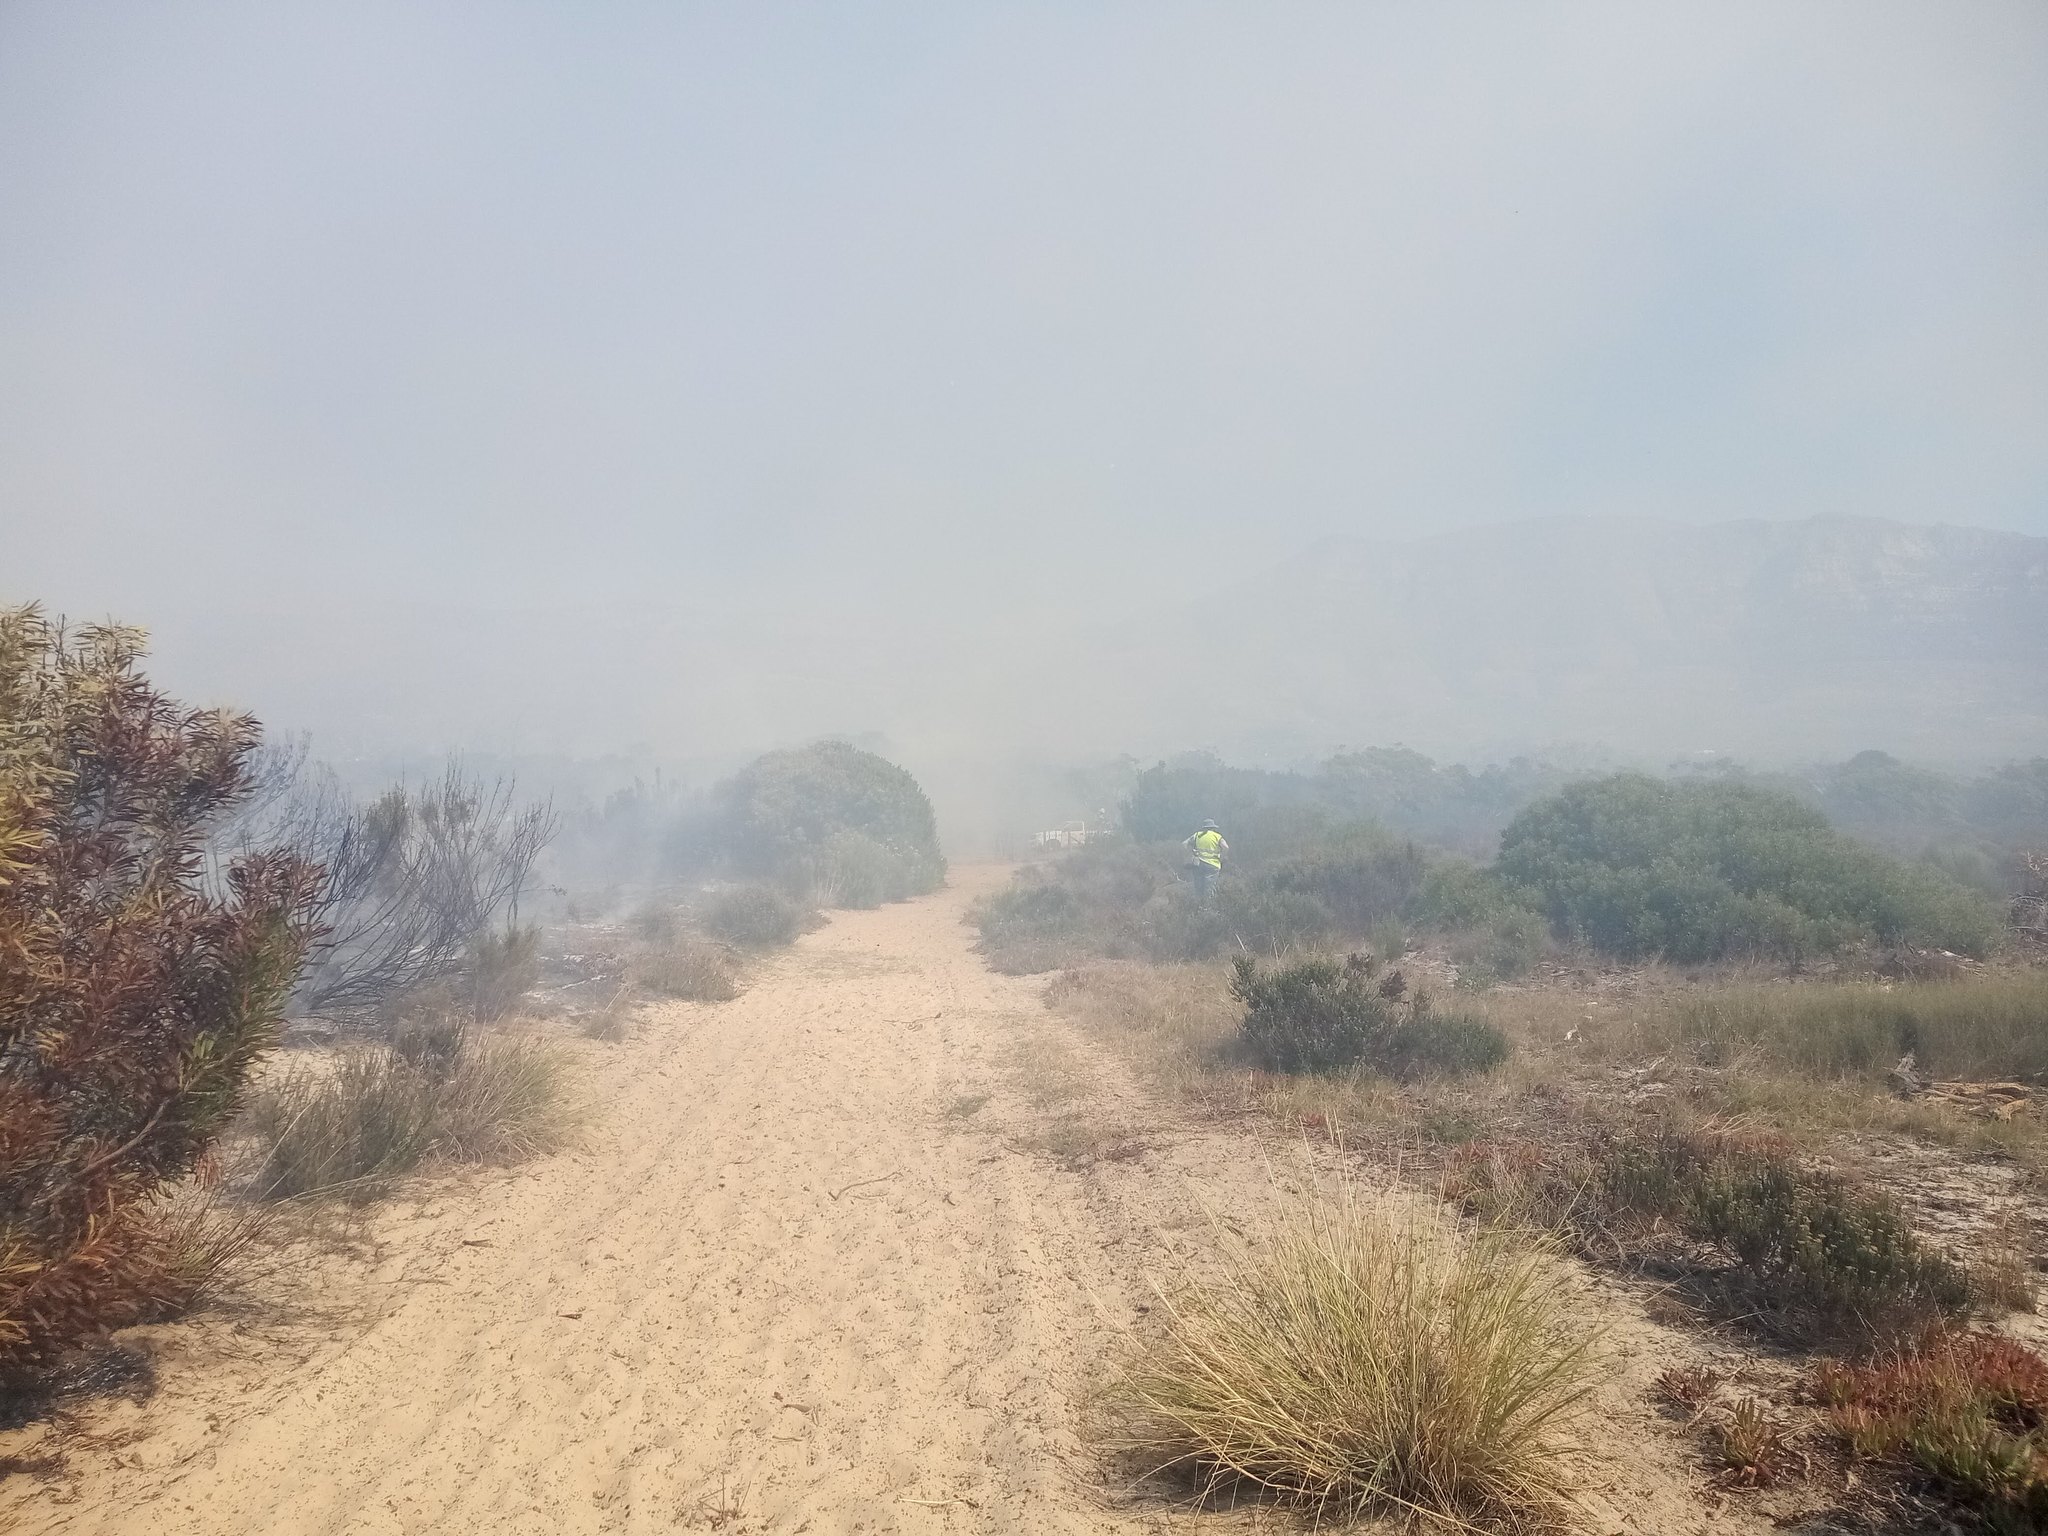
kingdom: Plantae
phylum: Tracheophyta
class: Magnoliopsida
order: Proteales
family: Proteaceae
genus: Protea
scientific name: Protea repens
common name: Sugarbush
